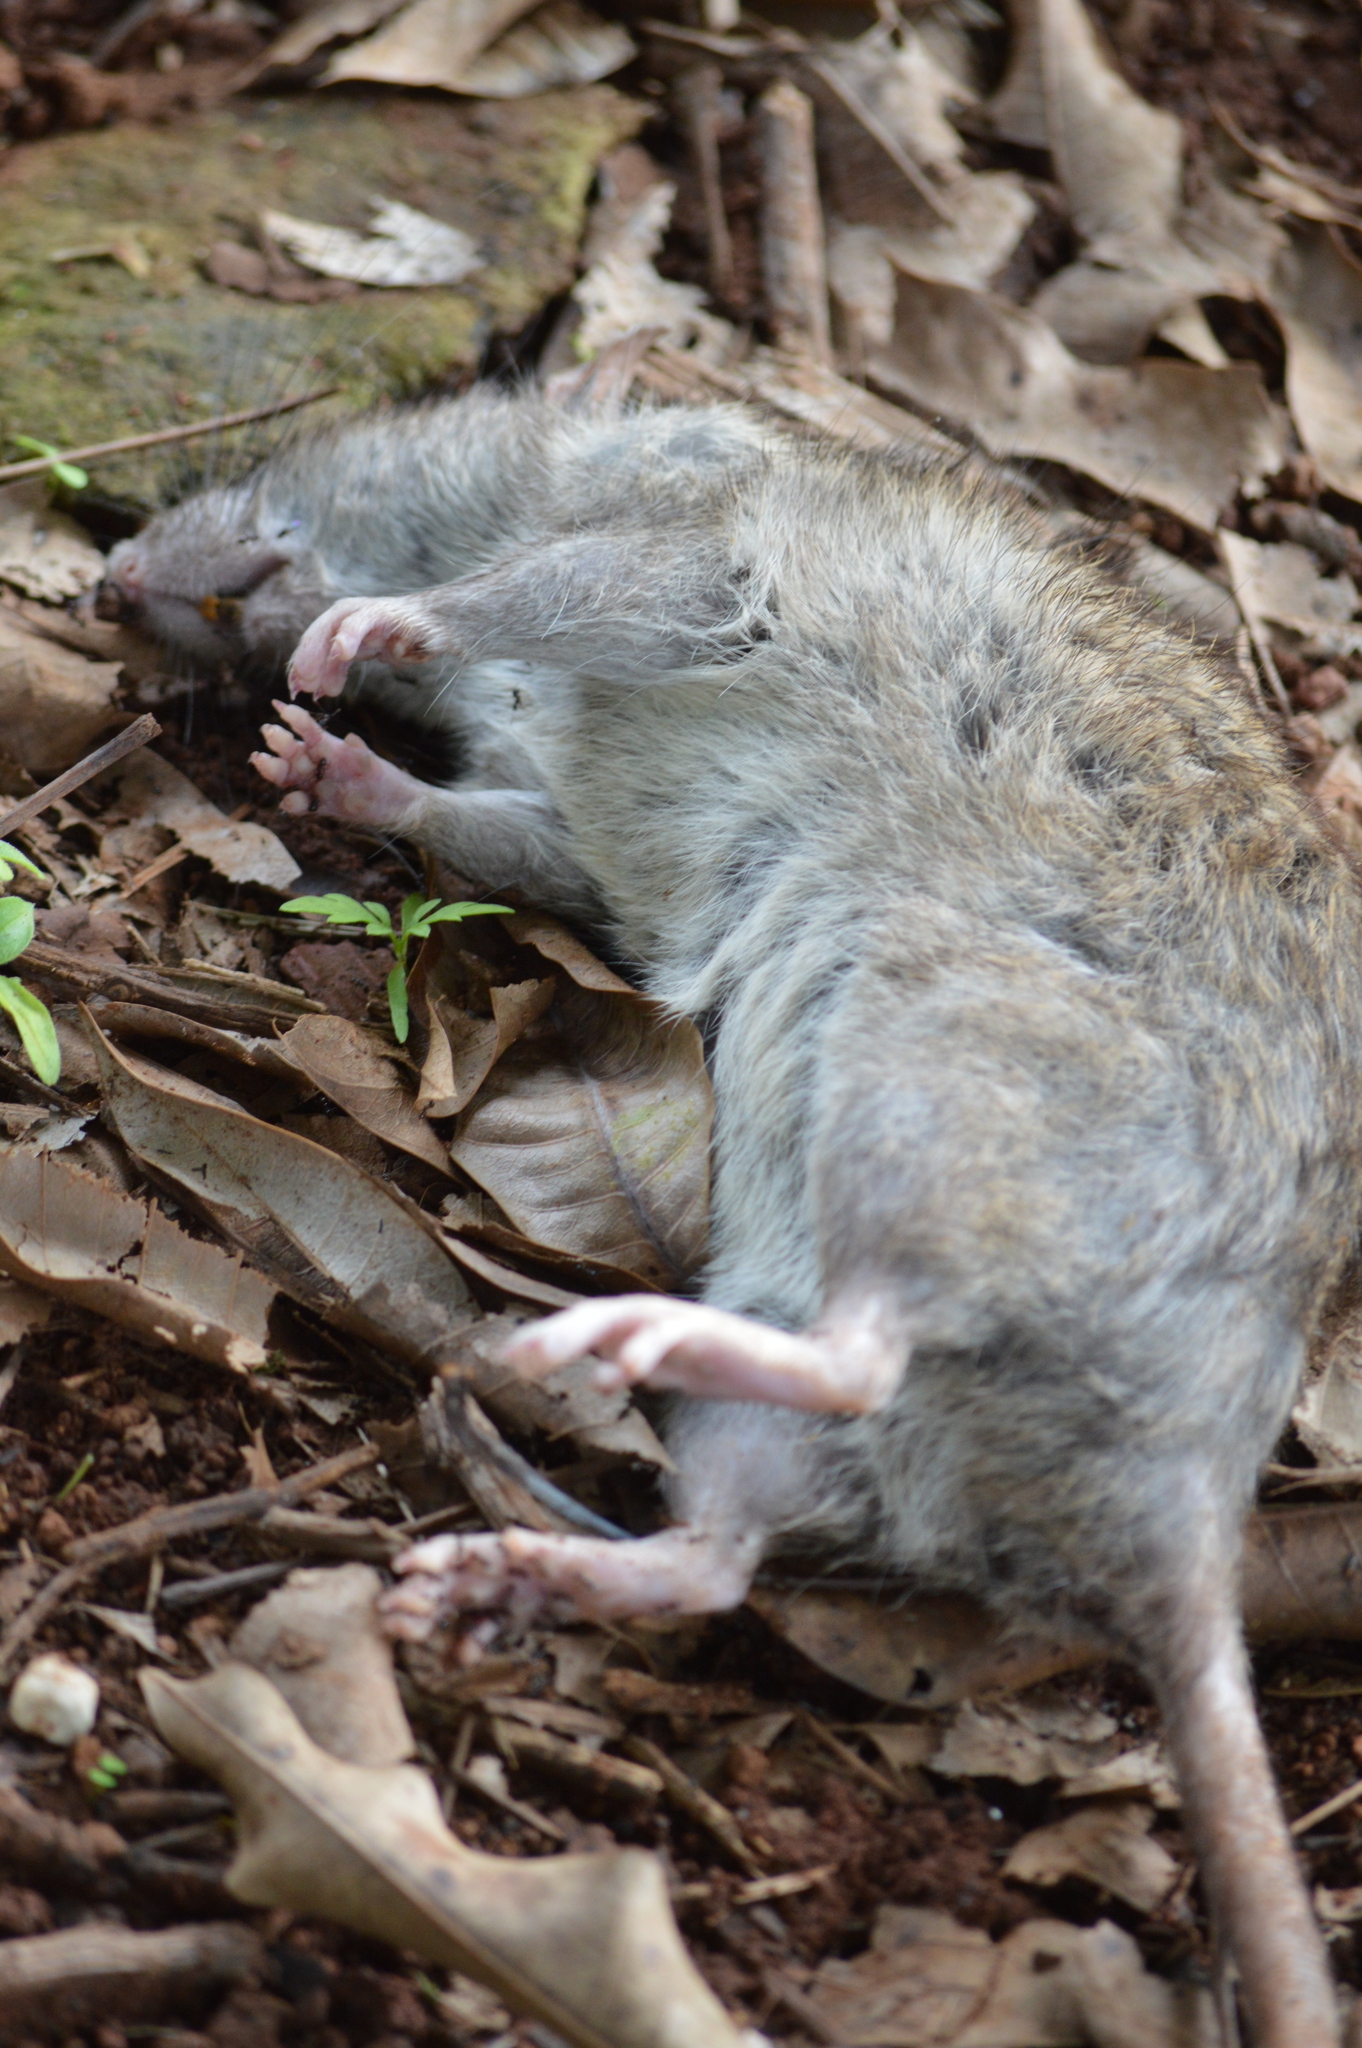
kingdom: Animalia
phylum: Chordata
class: Mammalia
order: Rodentia
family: Muridae
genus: Rattus
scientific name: Rattus norvegicus
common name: Brown rat
